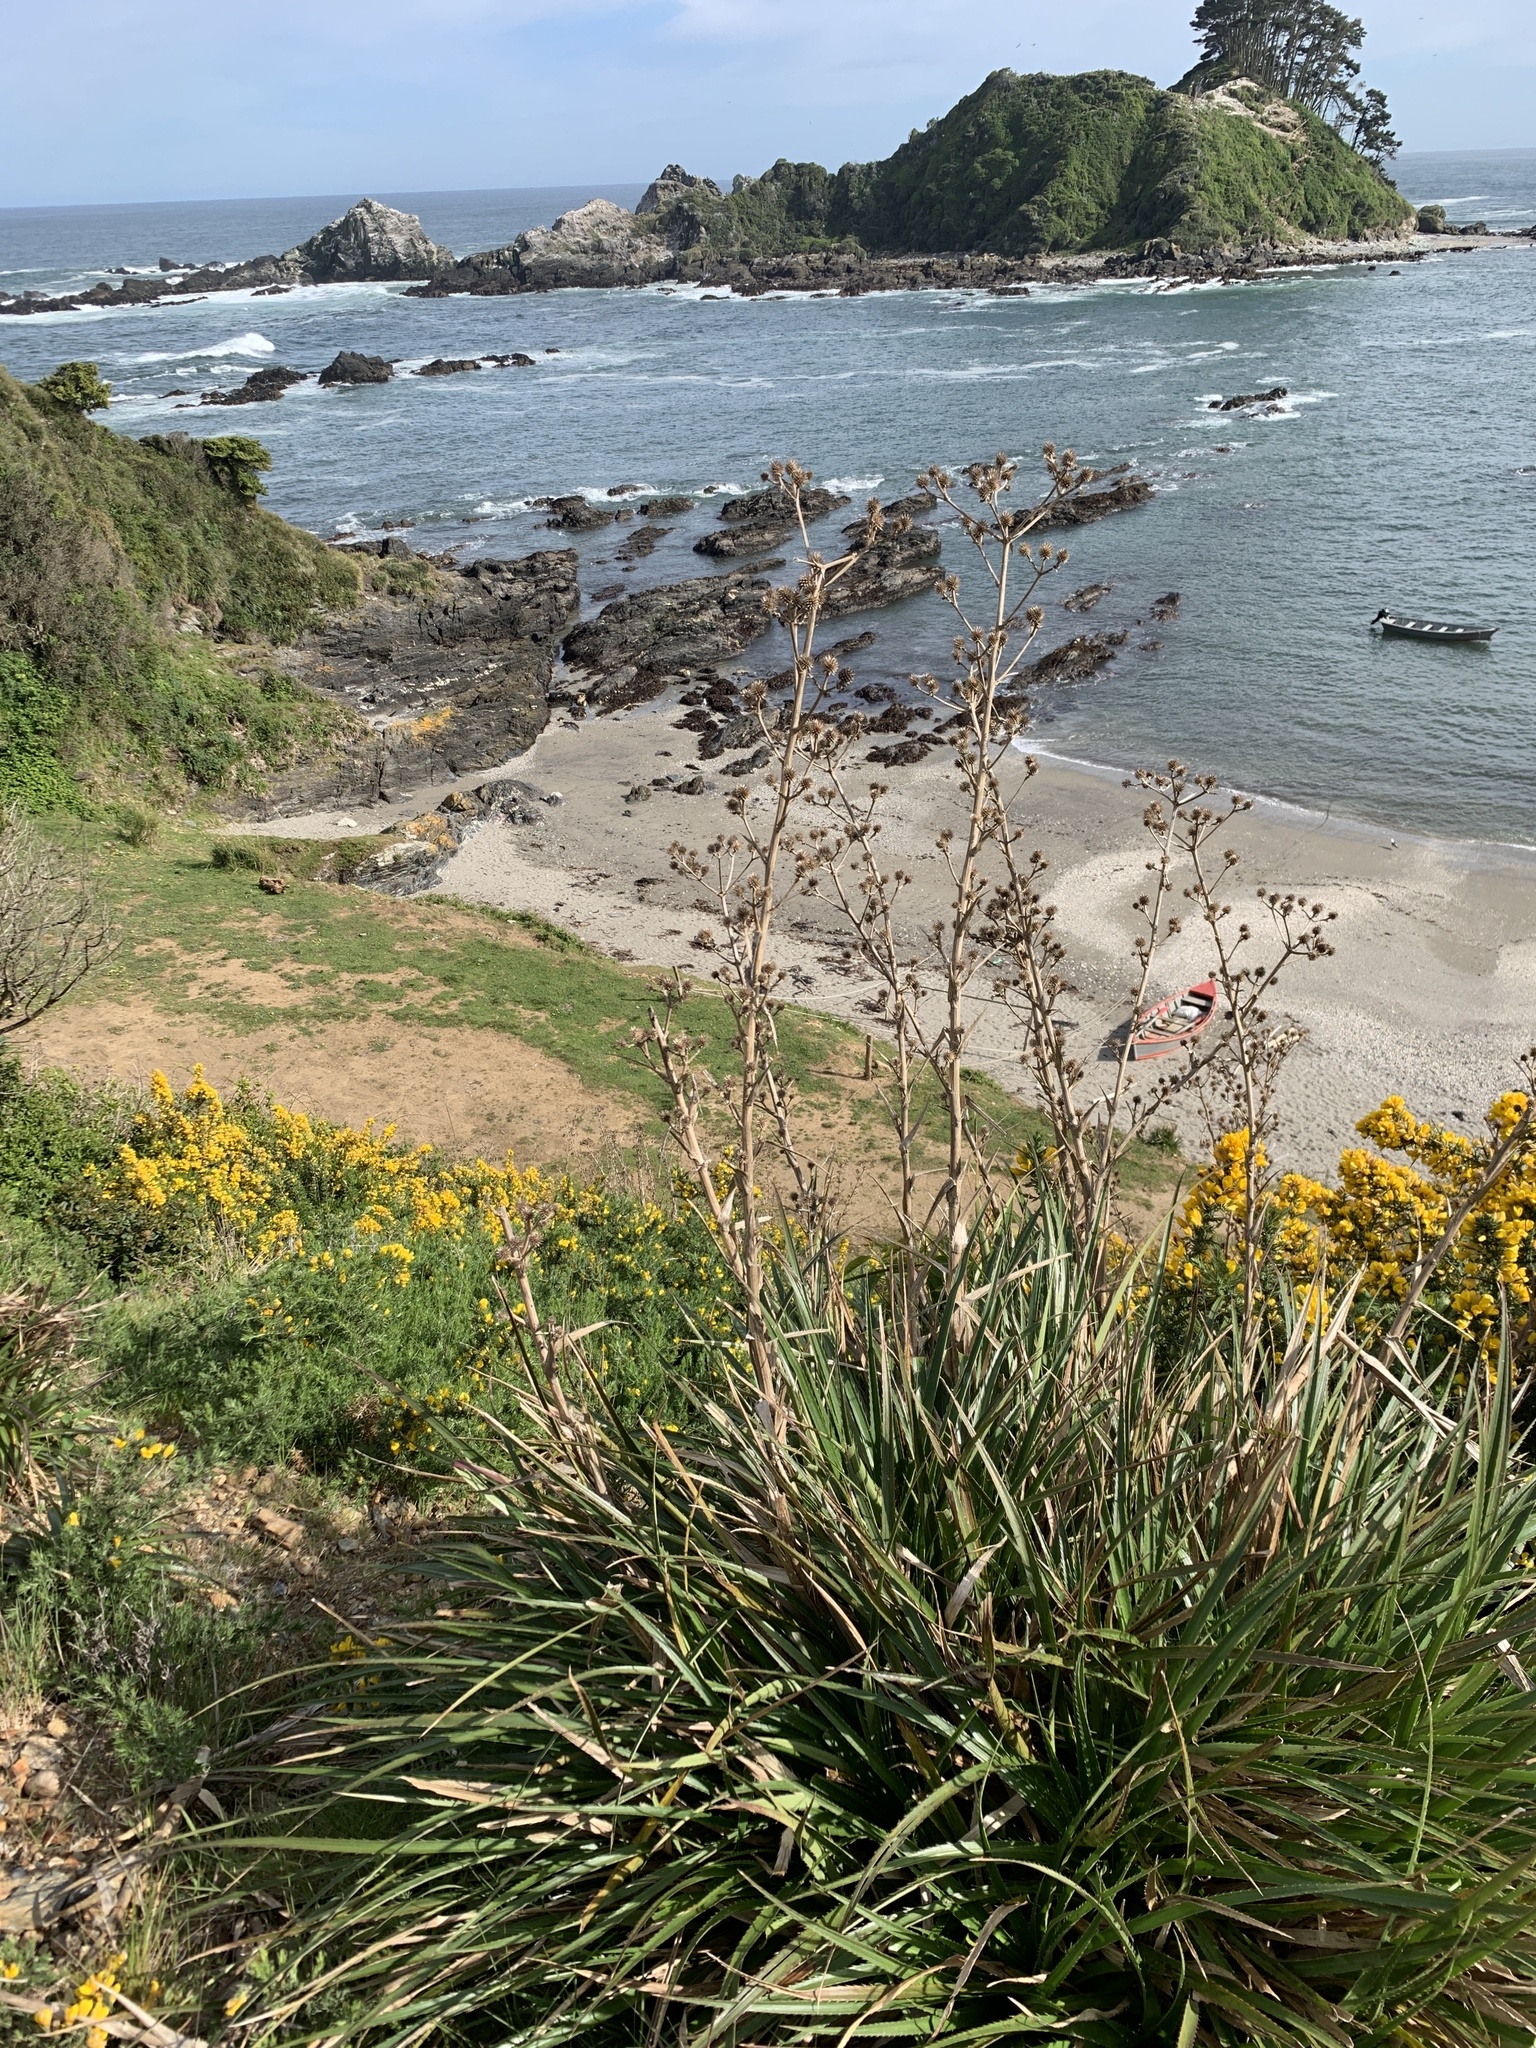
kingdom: Plantae
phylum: Tracheophyta
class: Magnoliopsida
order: Apiales
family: Apiaceae
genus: Eryngium
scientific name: Eryngium humboldtii
